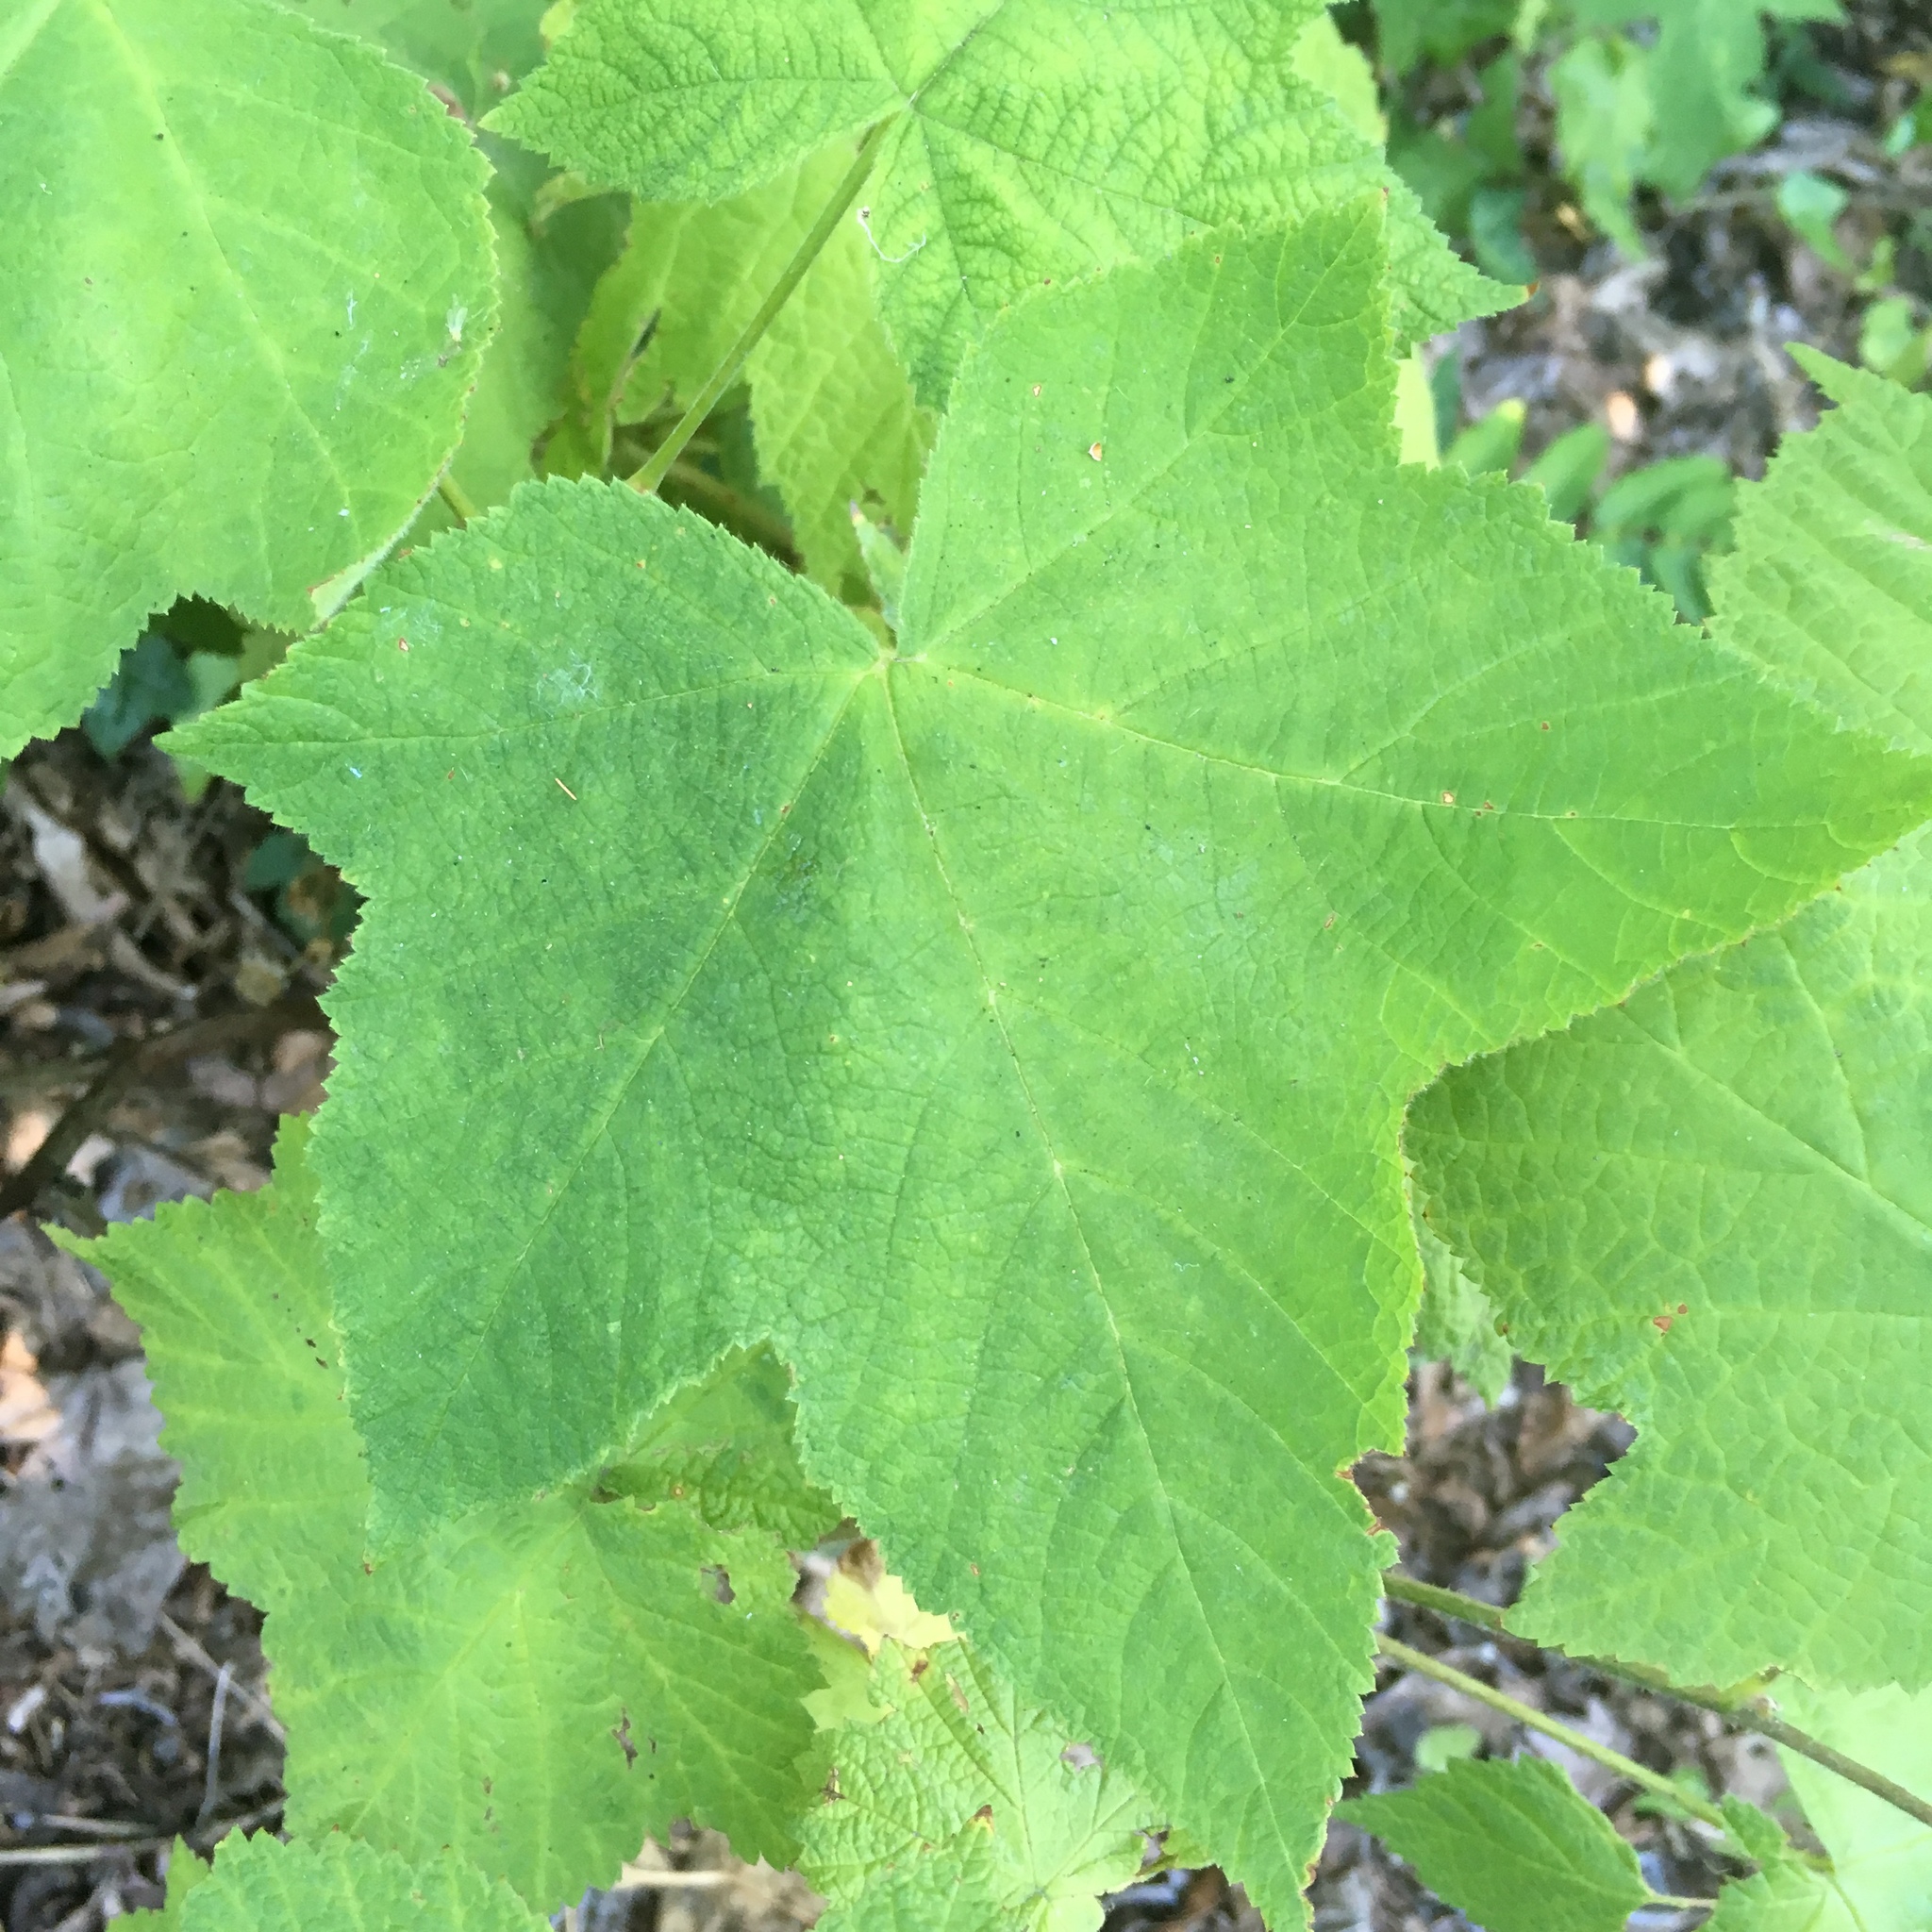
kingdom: Plantae
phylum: Tracheophyta
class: Magnoliopsida
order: Rosales
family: Rosaceae
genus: Rubus
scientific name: Rubus parviflorus
